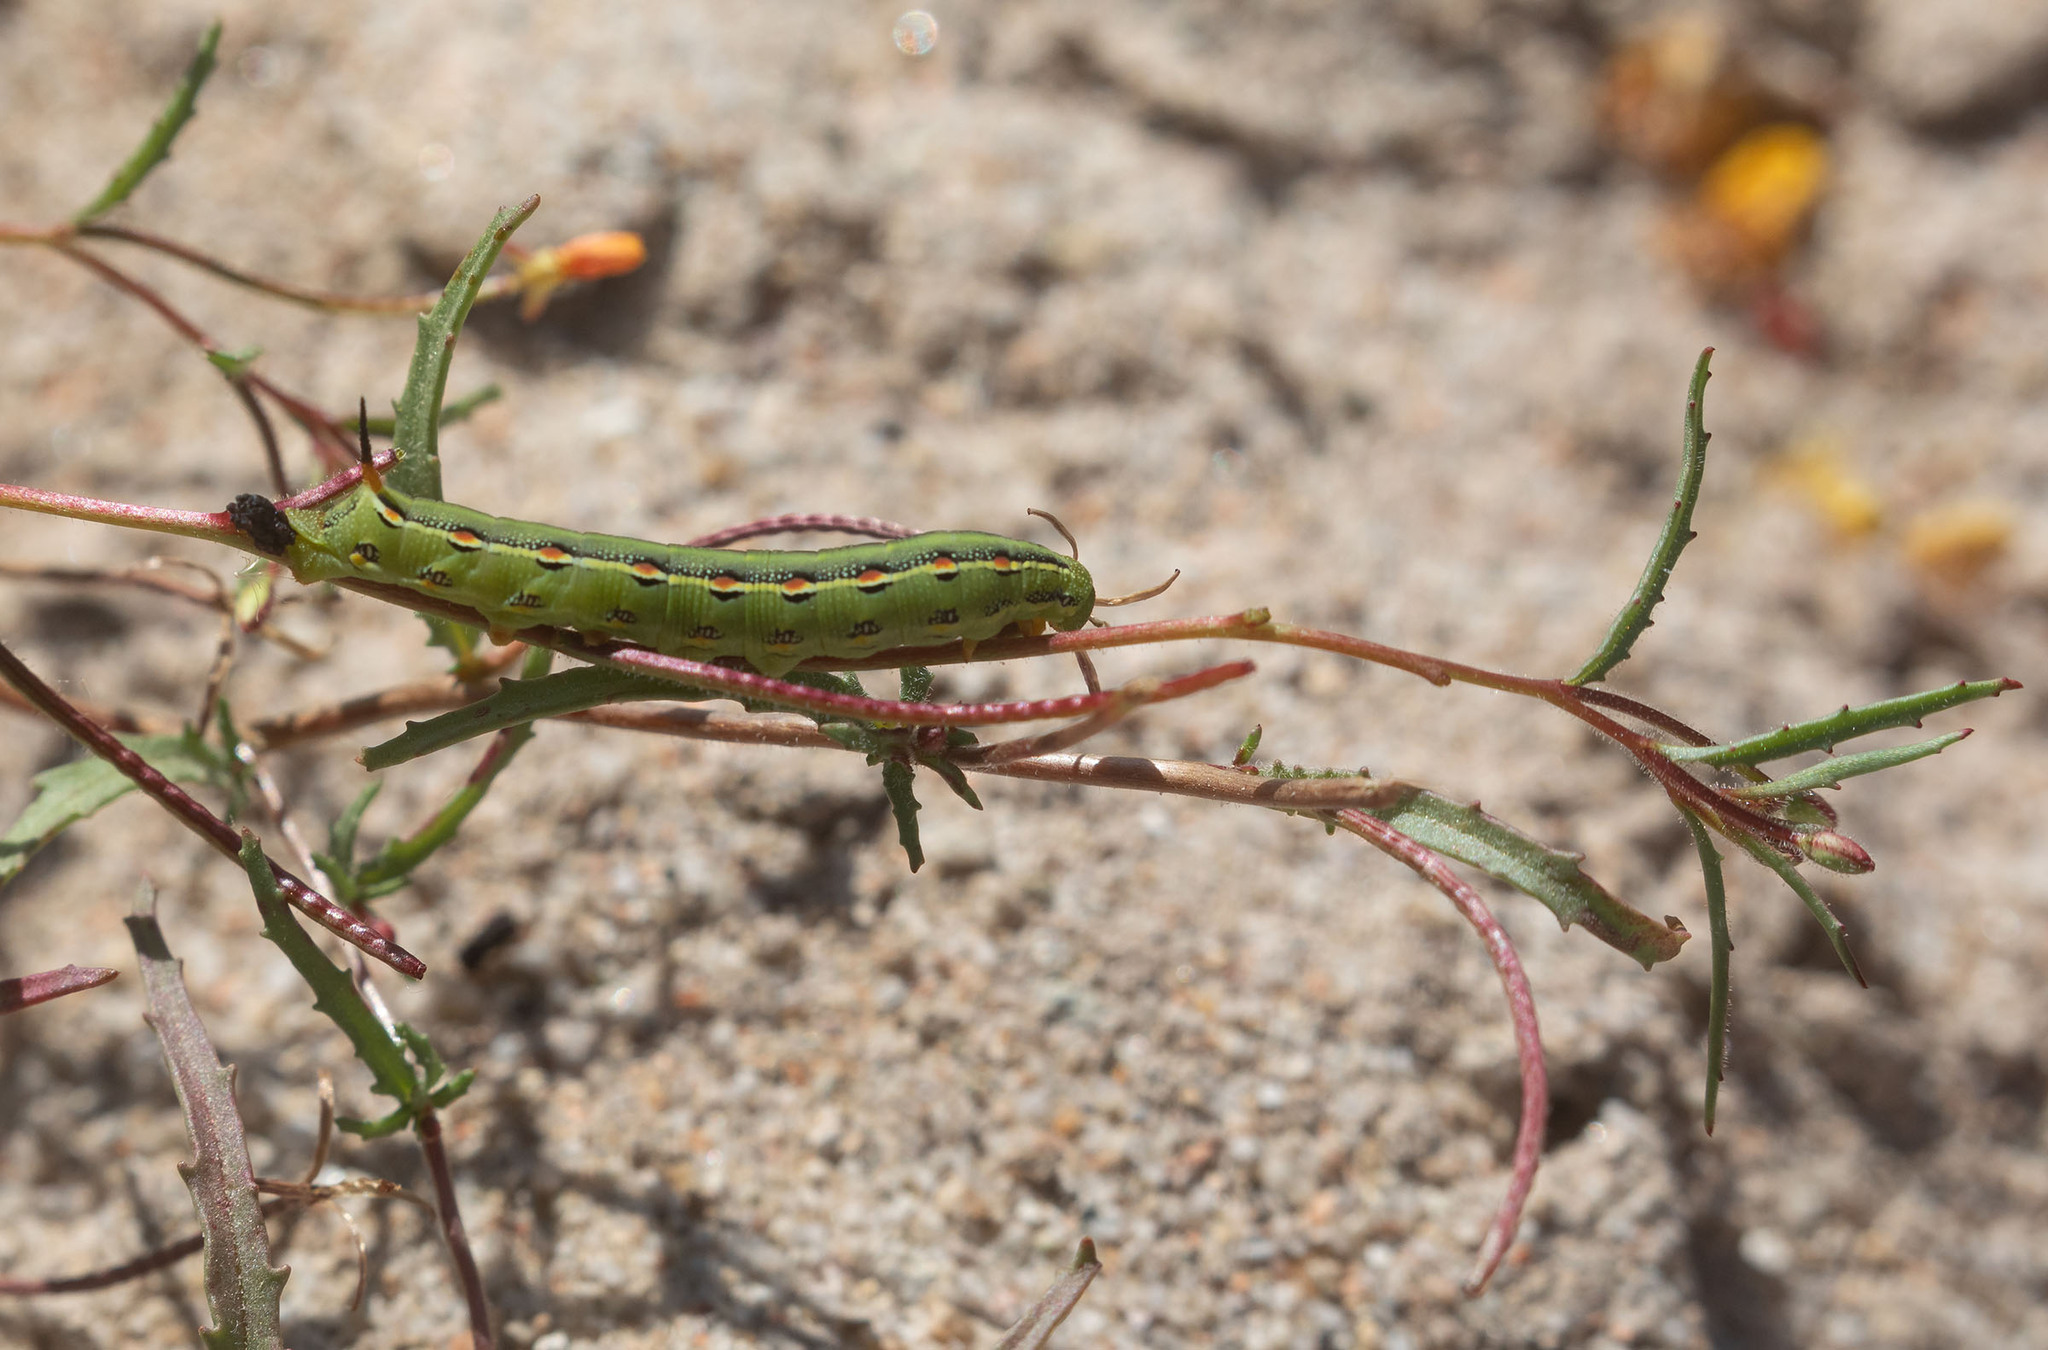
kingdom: Animalia
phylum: Arthropoda
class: Insecta
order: Lepidoptera
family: Sphingidae
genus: Hyles
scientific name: Hyles lineata
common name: White-lined sphinx
